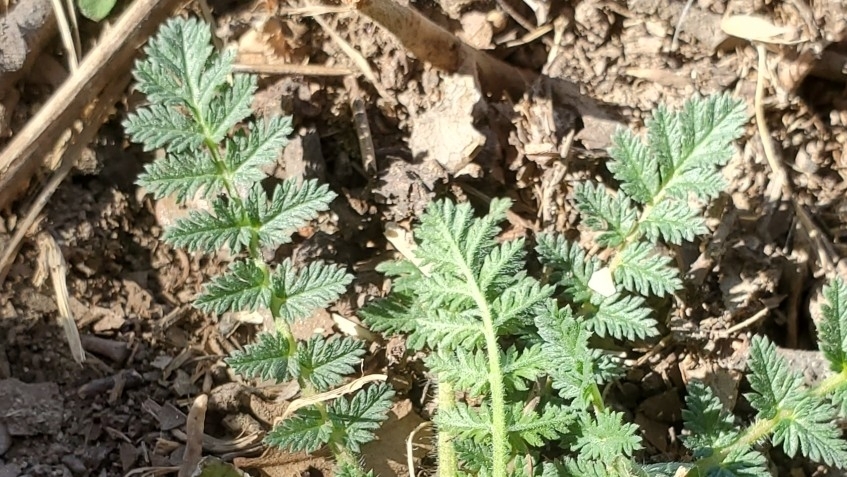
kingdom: Plantae
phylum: Tracheophyta
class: Magnoliopsida
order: Geraniales
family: Geraniaceae
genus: Erodium
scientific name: Erodium cicutarium
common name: Common stork's-bill
